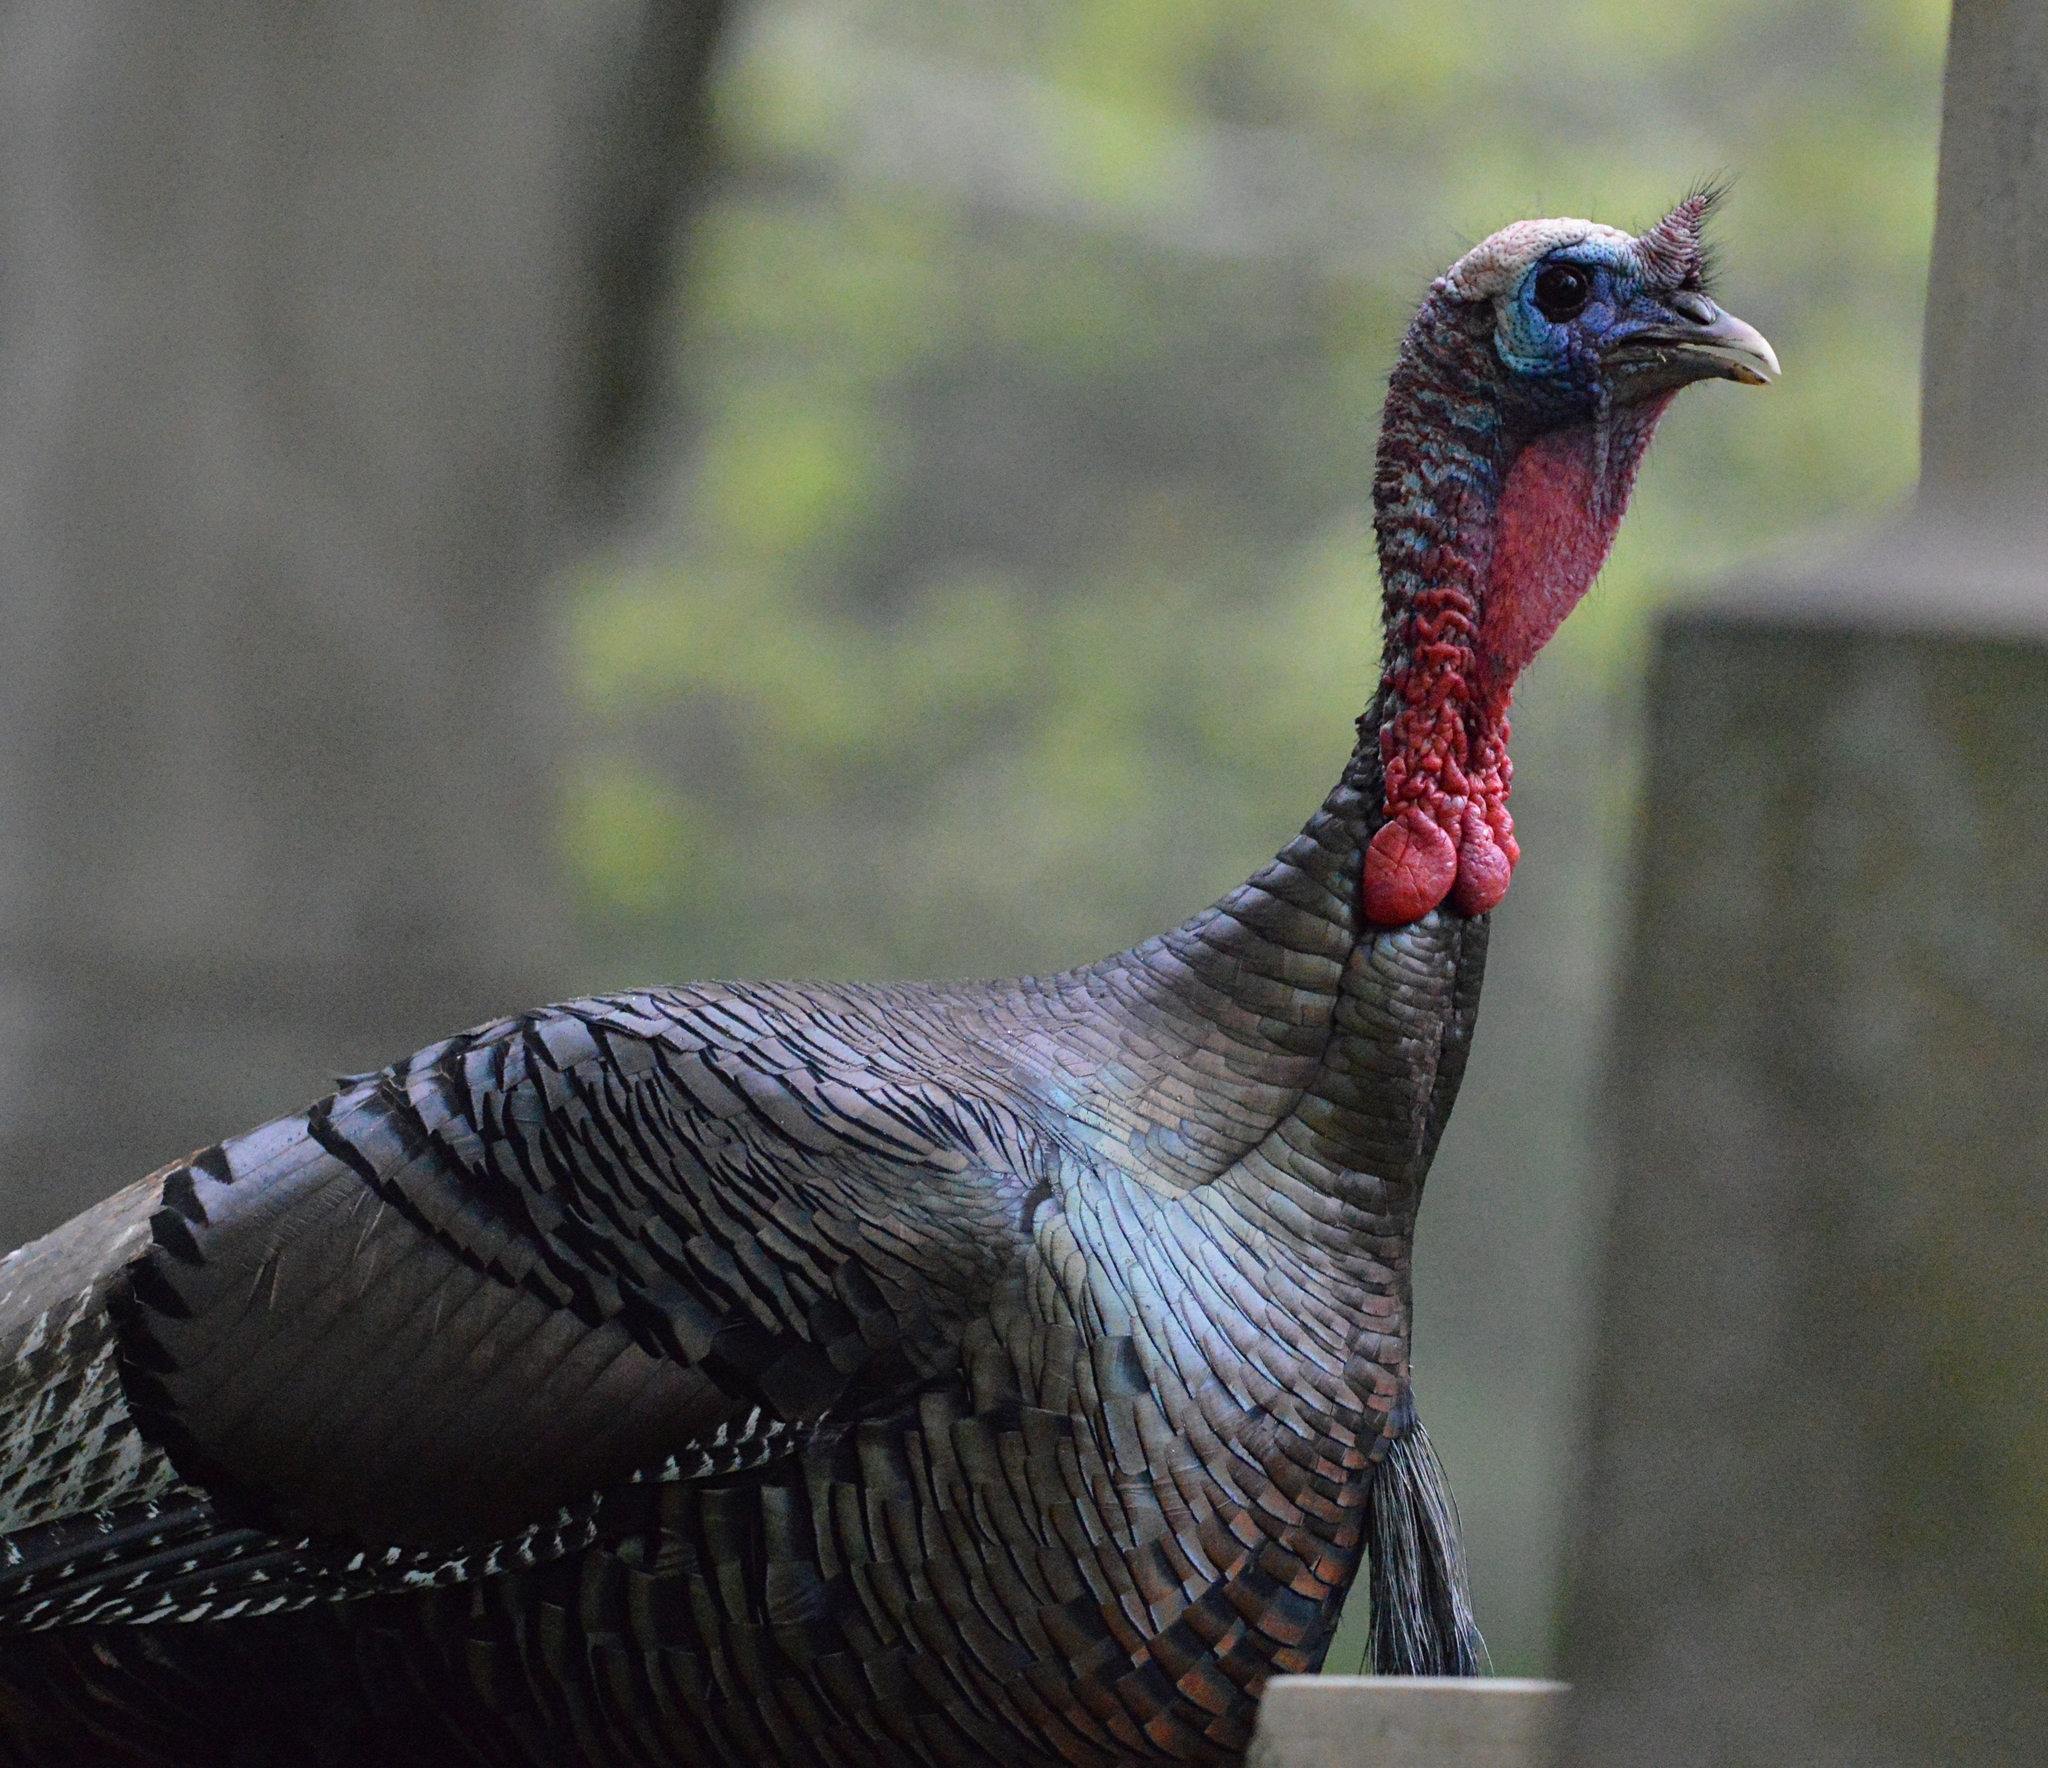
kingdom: Animalia
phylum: Chordata
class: Aves
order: Galliformes
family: Phasianidae
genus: Meleagris
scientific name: Meleagris gallopavo
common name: Wild turkey
